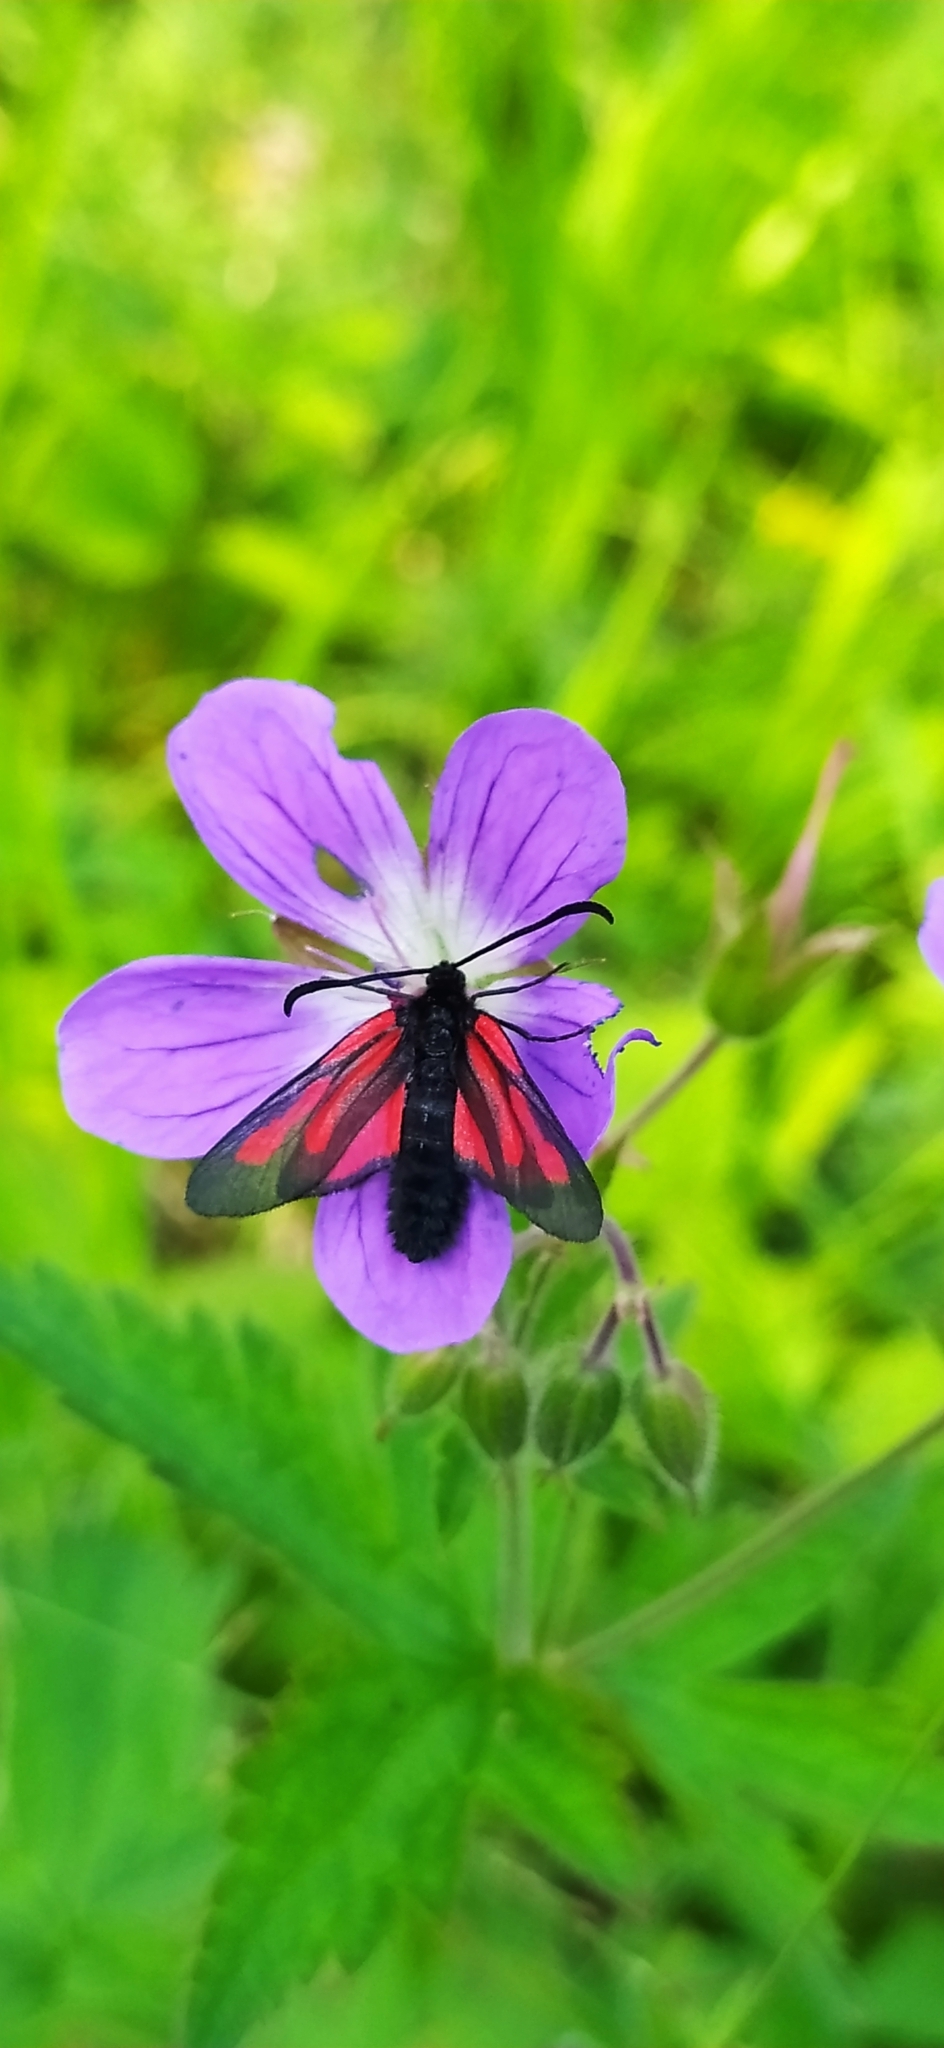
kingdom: Animalia
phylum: Arthropoda
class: Insecta
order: Lepidoptera
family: Zygaenidae
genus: Zygaena
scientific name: Zygaena osterodensis
